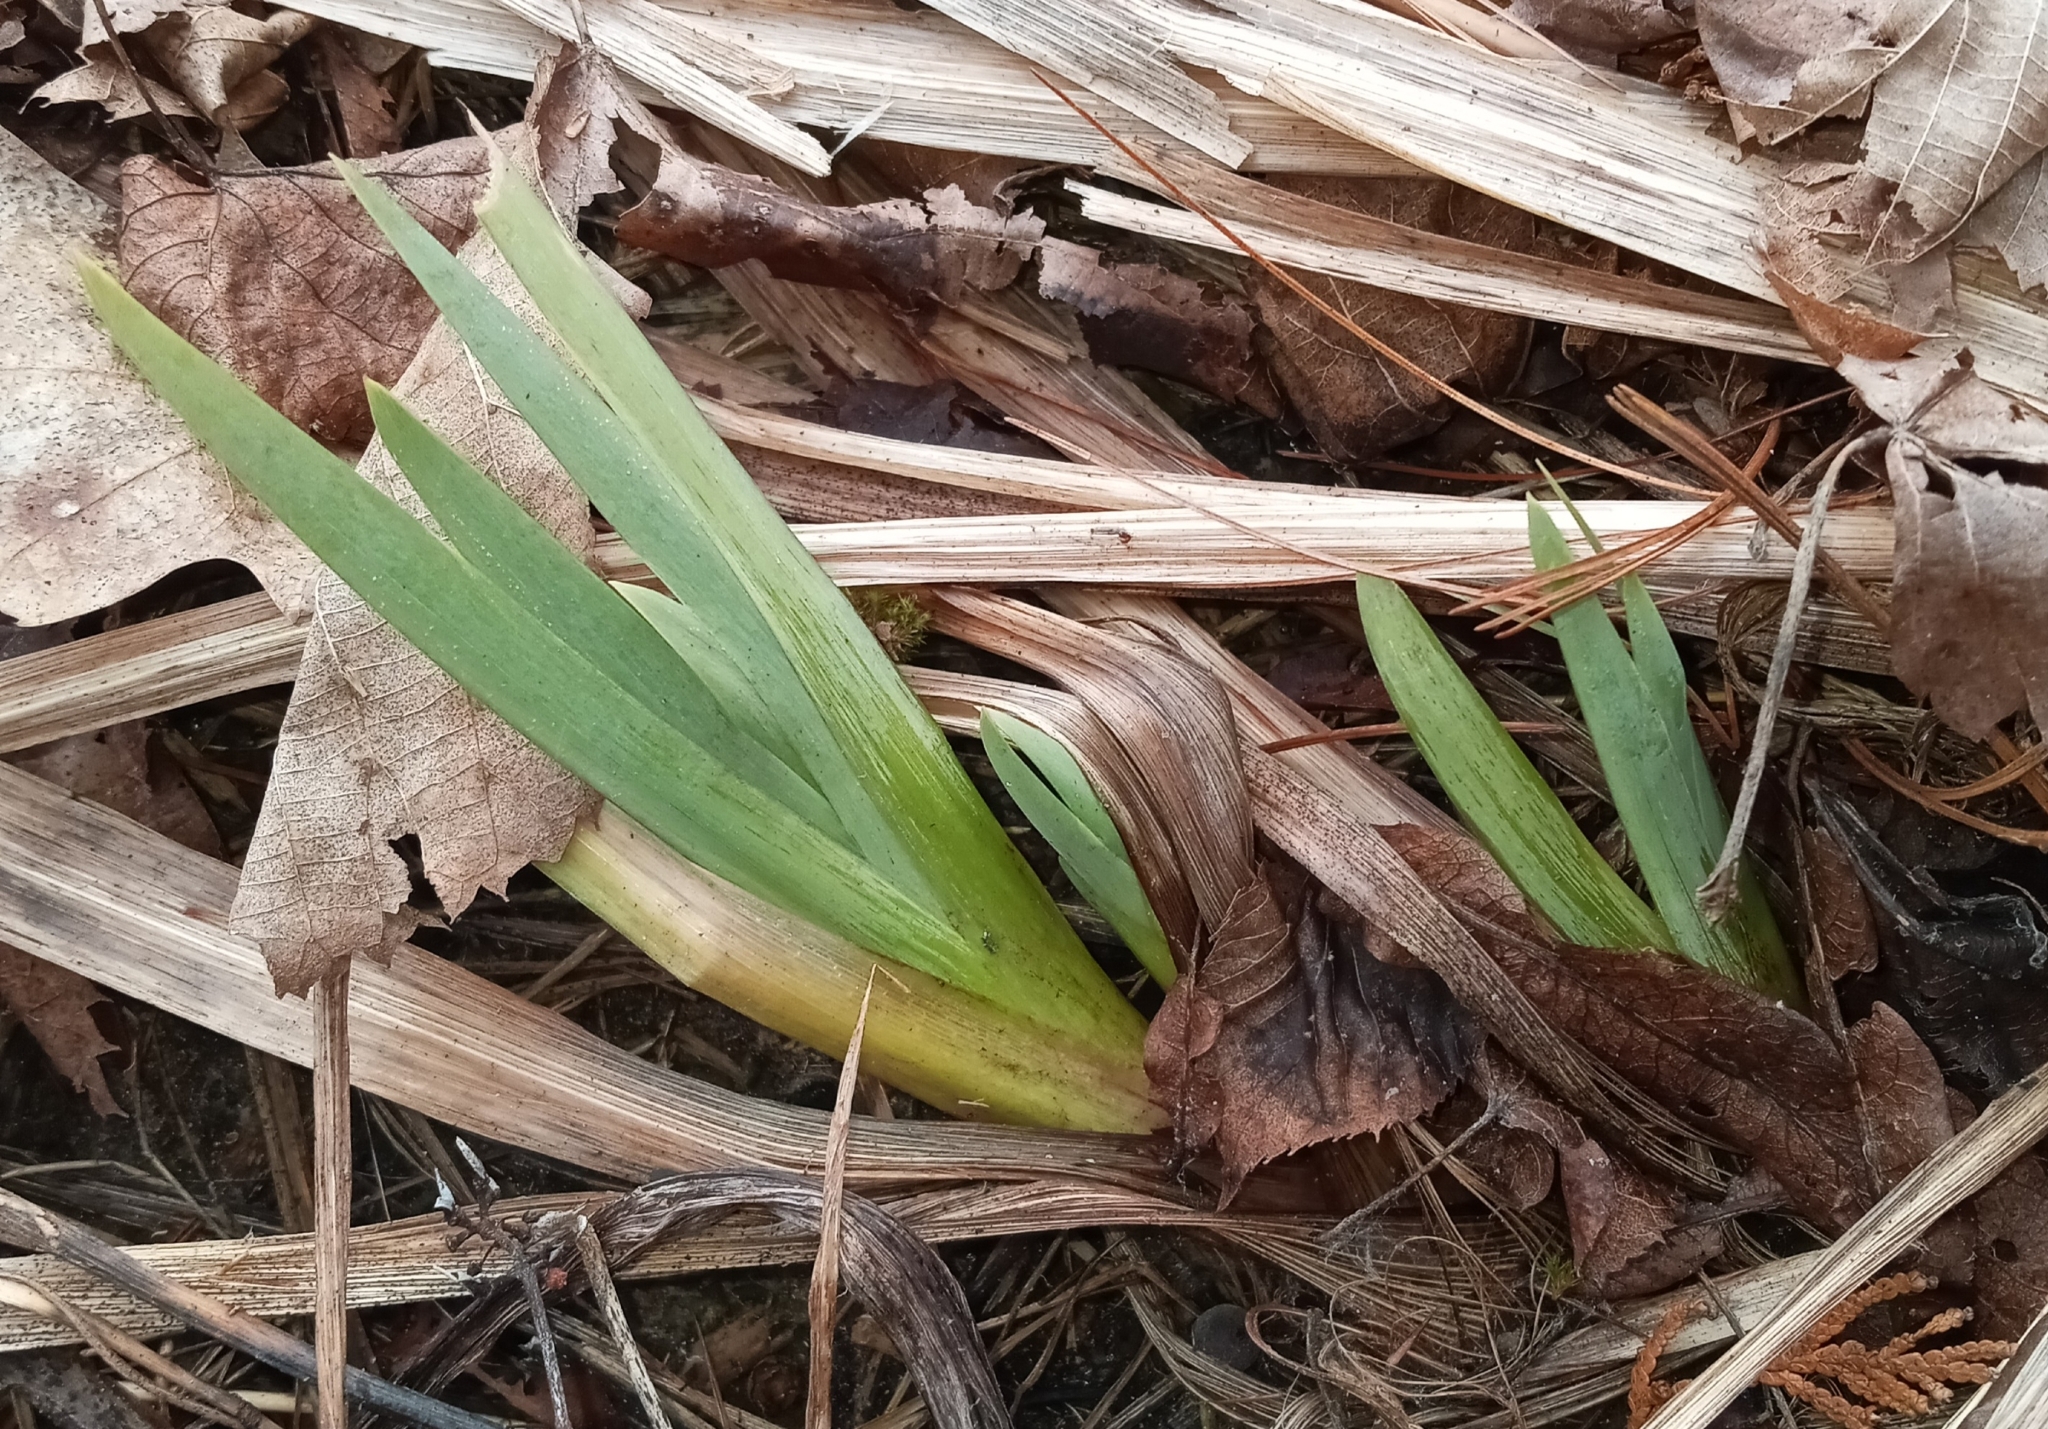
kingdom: Plantae
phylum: Tracheophyta
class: Liliopsida
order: Asparagales
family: Iridaceae
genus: Iris
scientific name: Iris pseudacorus
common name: Yellow flag
